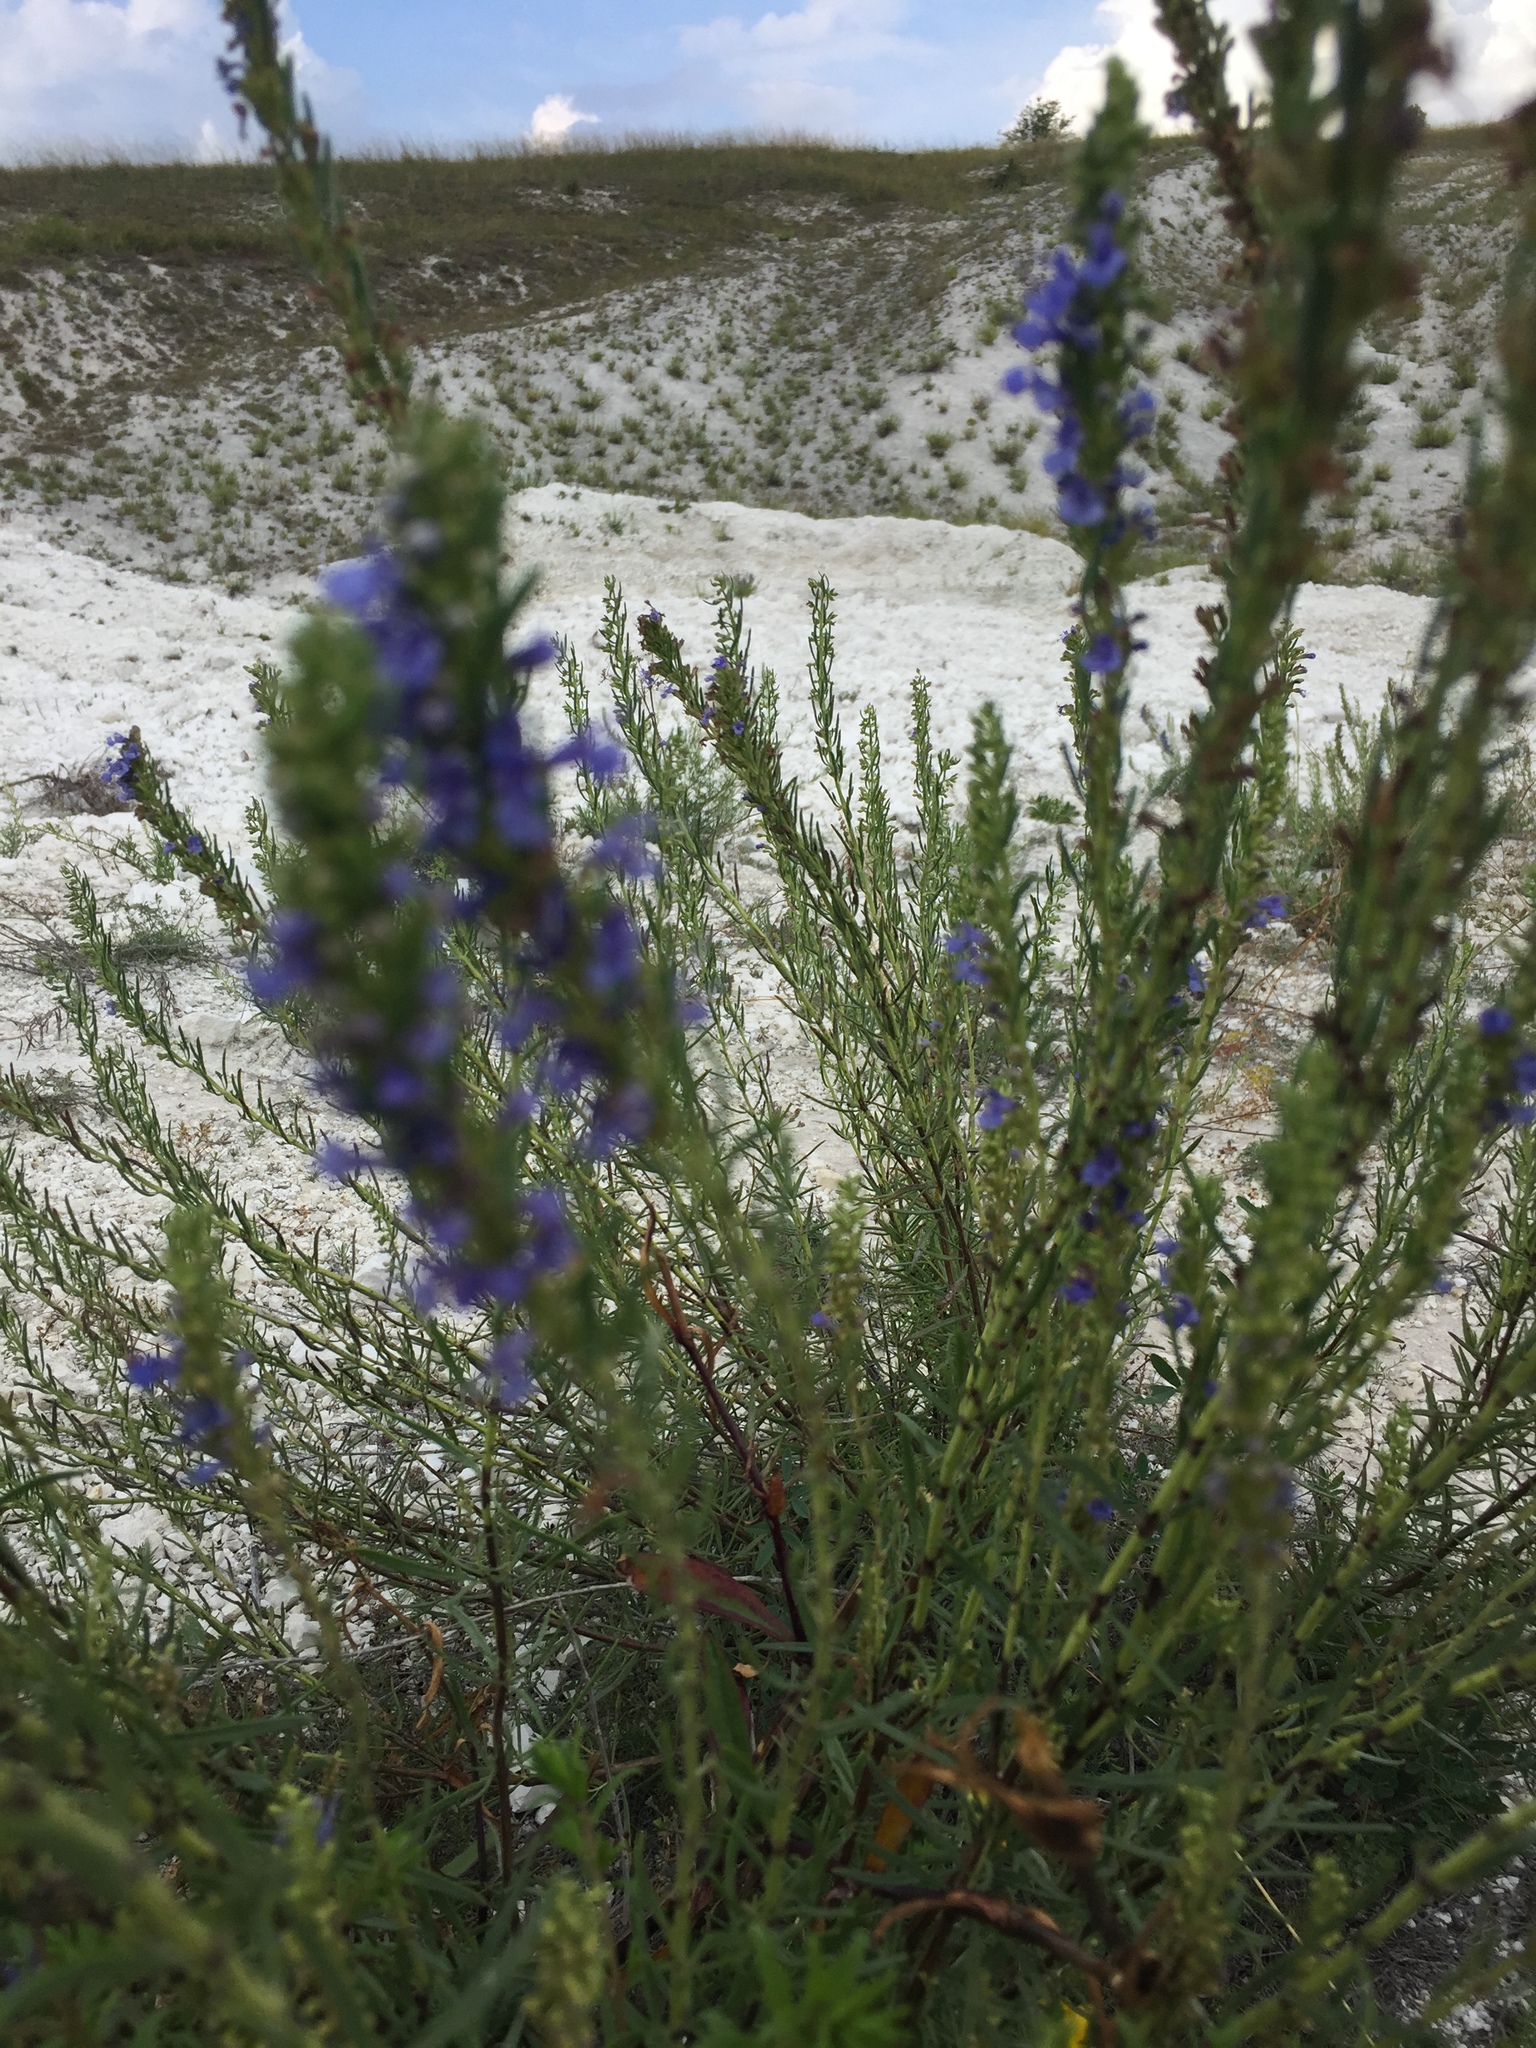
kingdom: Plantae
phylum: Tracheophyta
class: Magnoliopsida
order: Lamiales
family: Lamiaceae
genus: Hyssopus
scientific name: Hyssopus officinalis
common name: Hyssop
